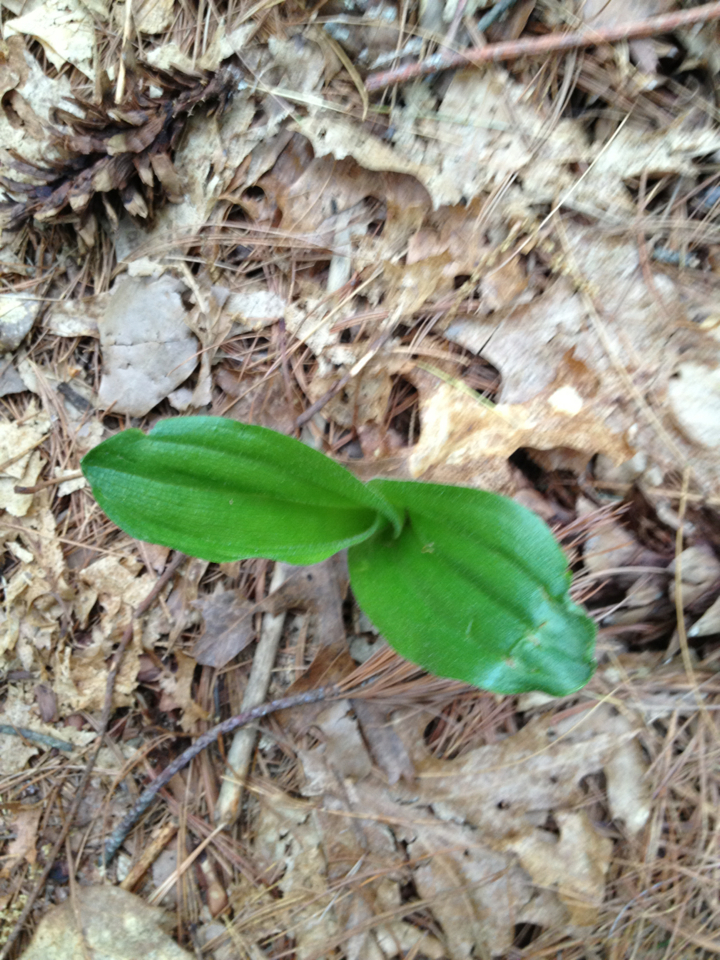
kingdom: Plantae
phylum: Tracheophyta
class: Liliopsida
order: Asparagales
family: Orchidaceae
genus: Cypripedium
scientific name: Cypripedium acaule
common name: Pink lady's-slipper
